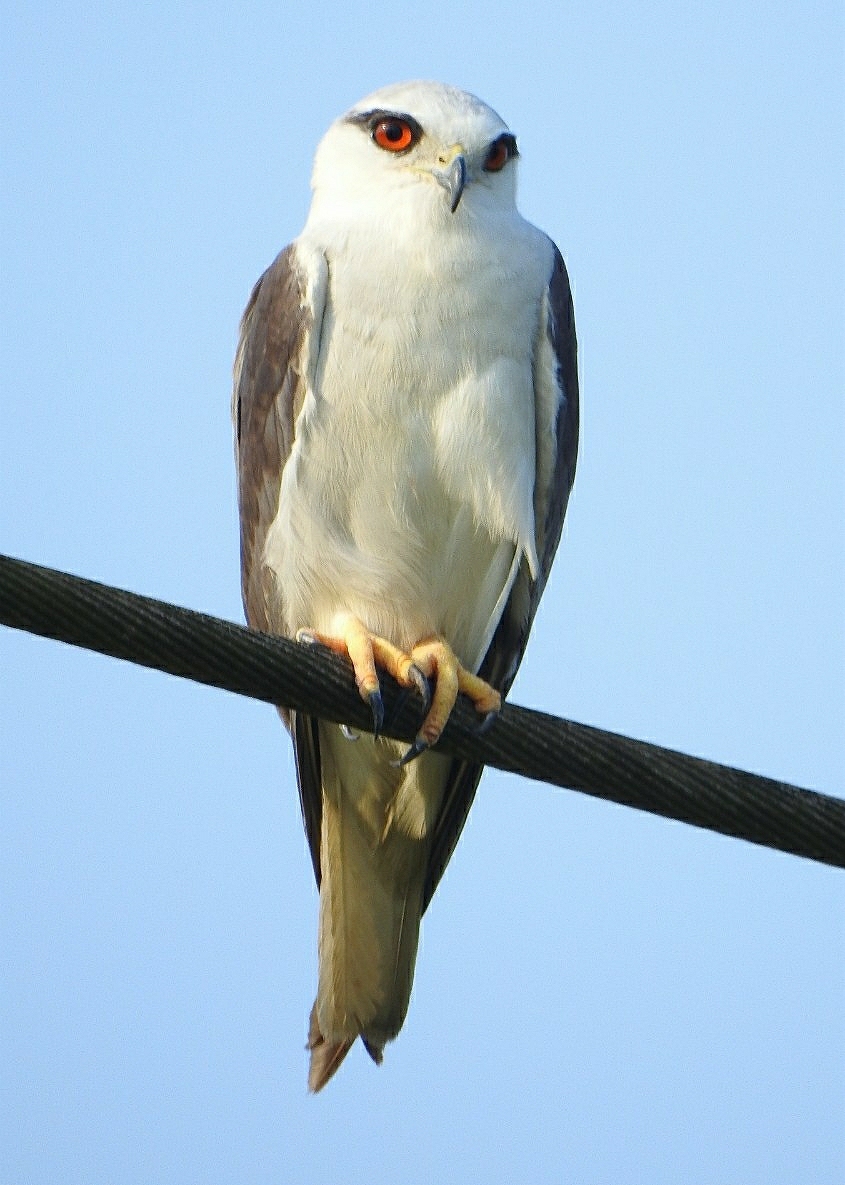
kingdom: Animalia
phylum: Chordata
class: Aves
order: Accipitriformes
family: Accipitridae
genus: Elanus
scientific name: Elanus caeruleus
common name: Black-winged kite
